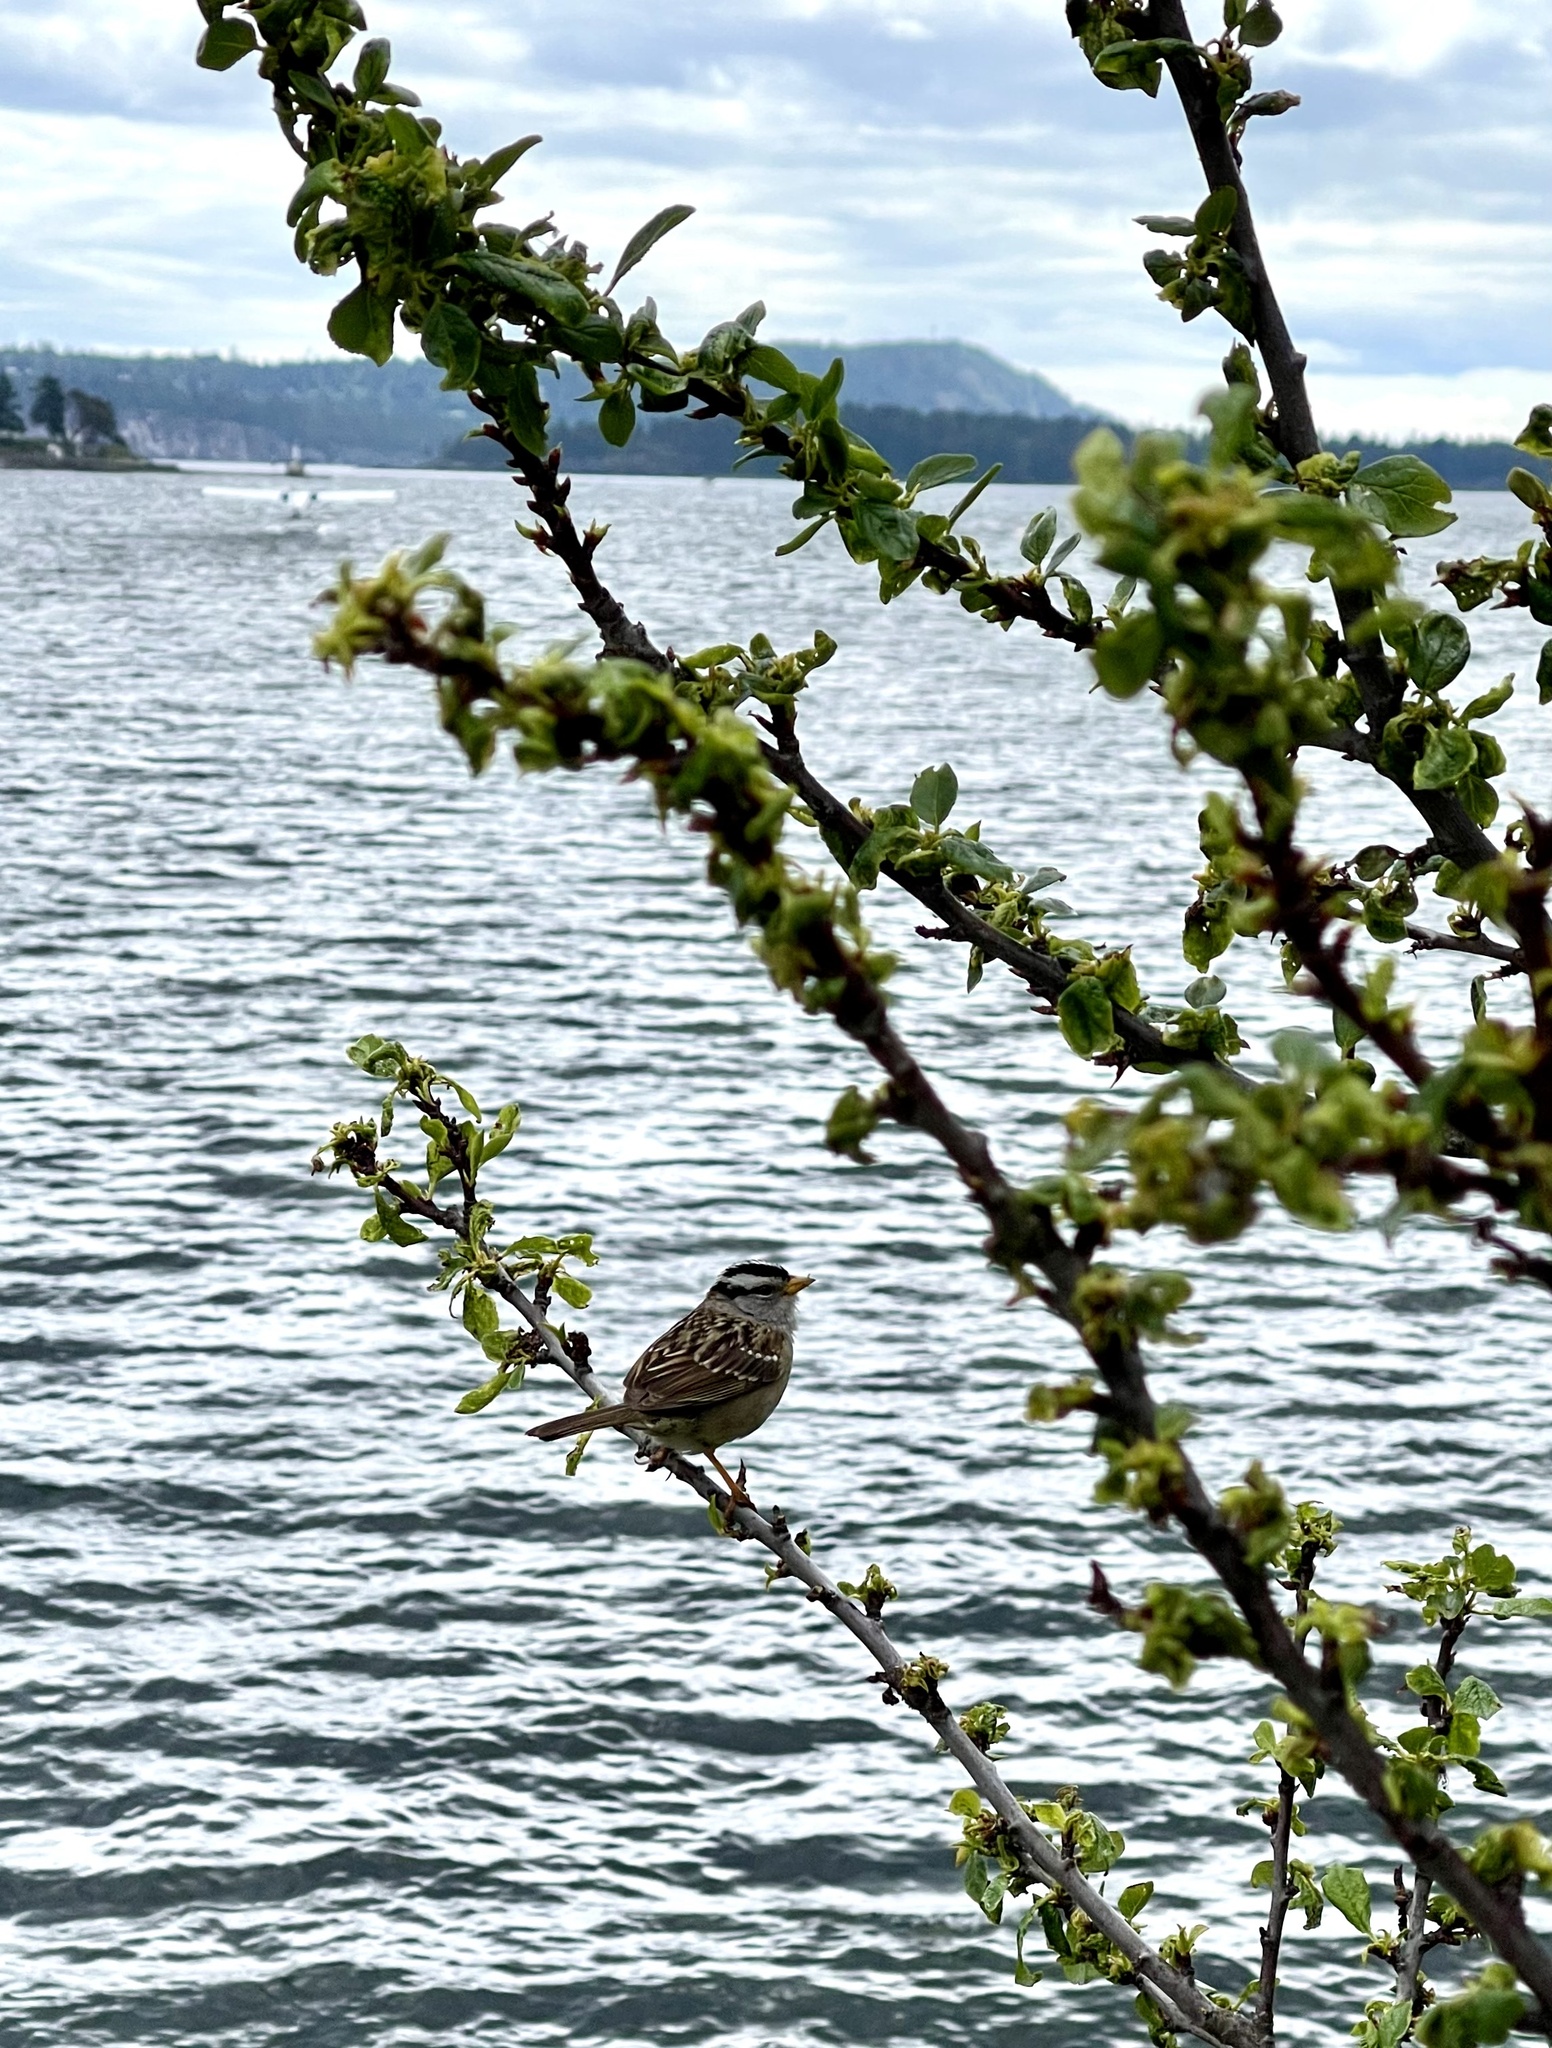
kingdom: Animalia
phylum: Chordata
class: Aves
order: Passeriformes
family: Passerellidae
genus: Zonotrichia
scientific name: Zonotrichia leucophrys
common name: White-crowned sparrow
